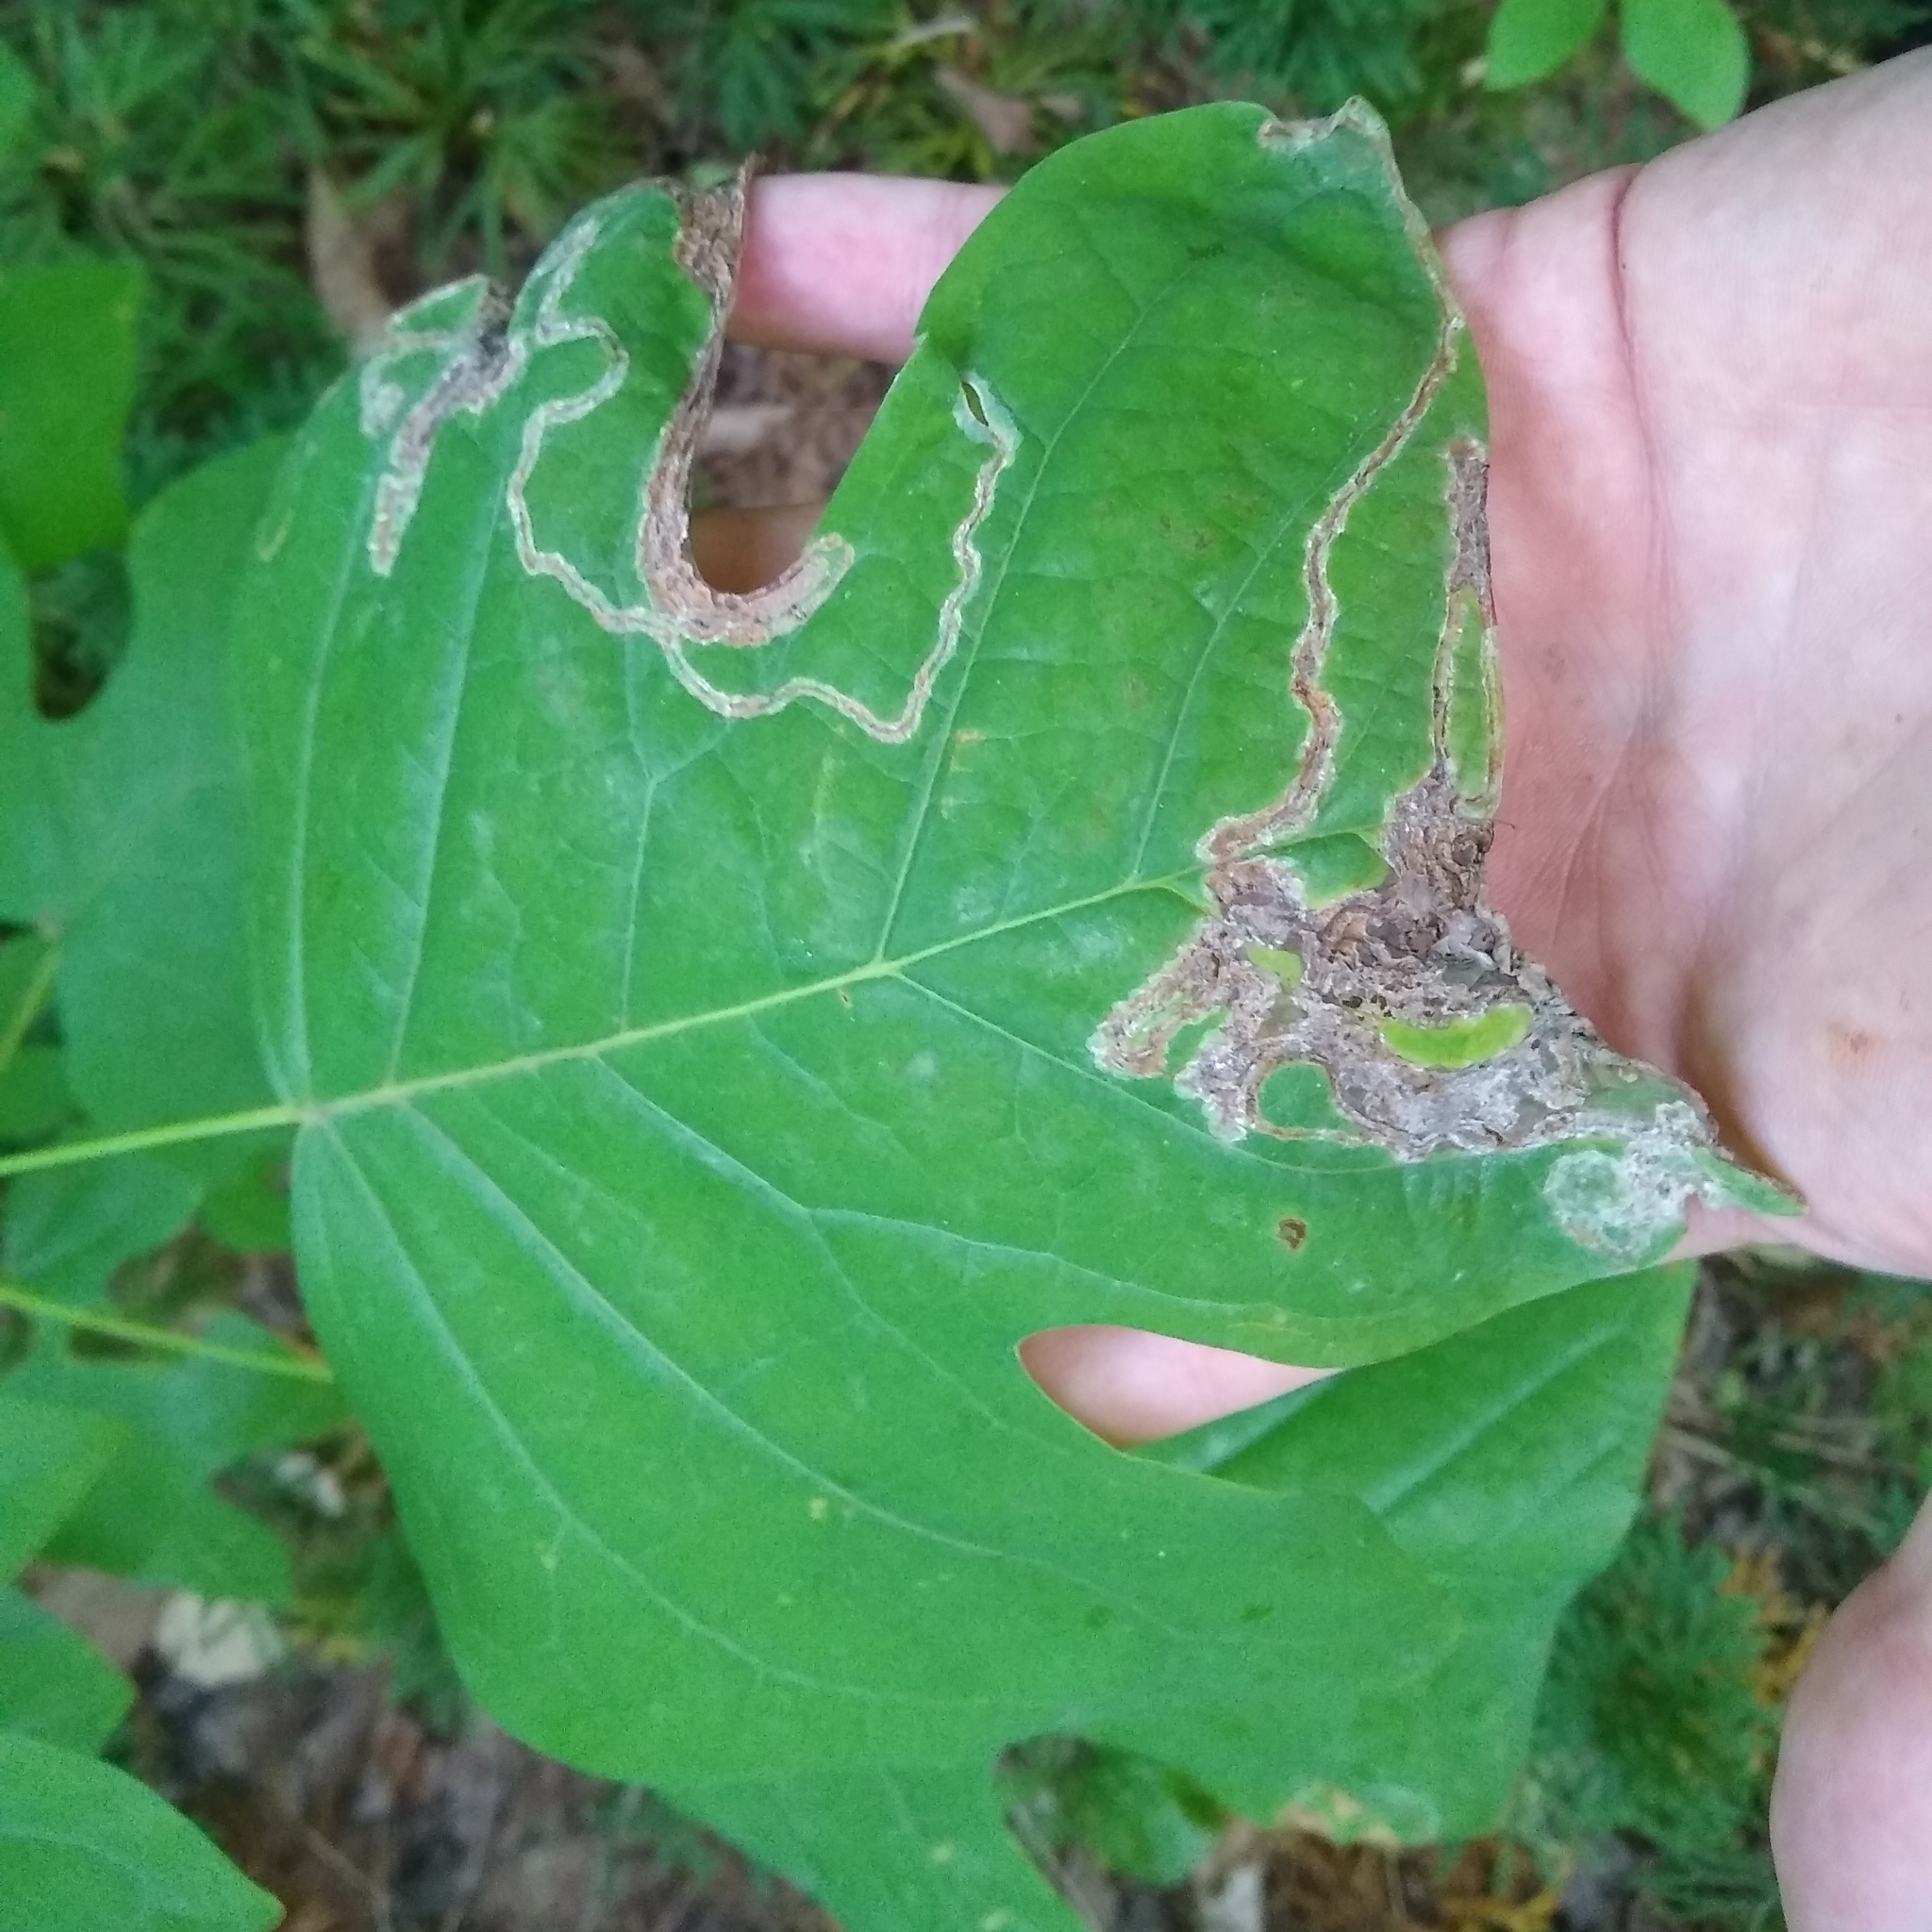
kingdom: Animalia
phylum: Arthropoda
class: Insecta
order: Lepidoptera
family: Gracillariidae
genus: Phyllocnistis
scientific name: Phyllocnistis liriodendronella
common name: Tulip tree leaf miner
